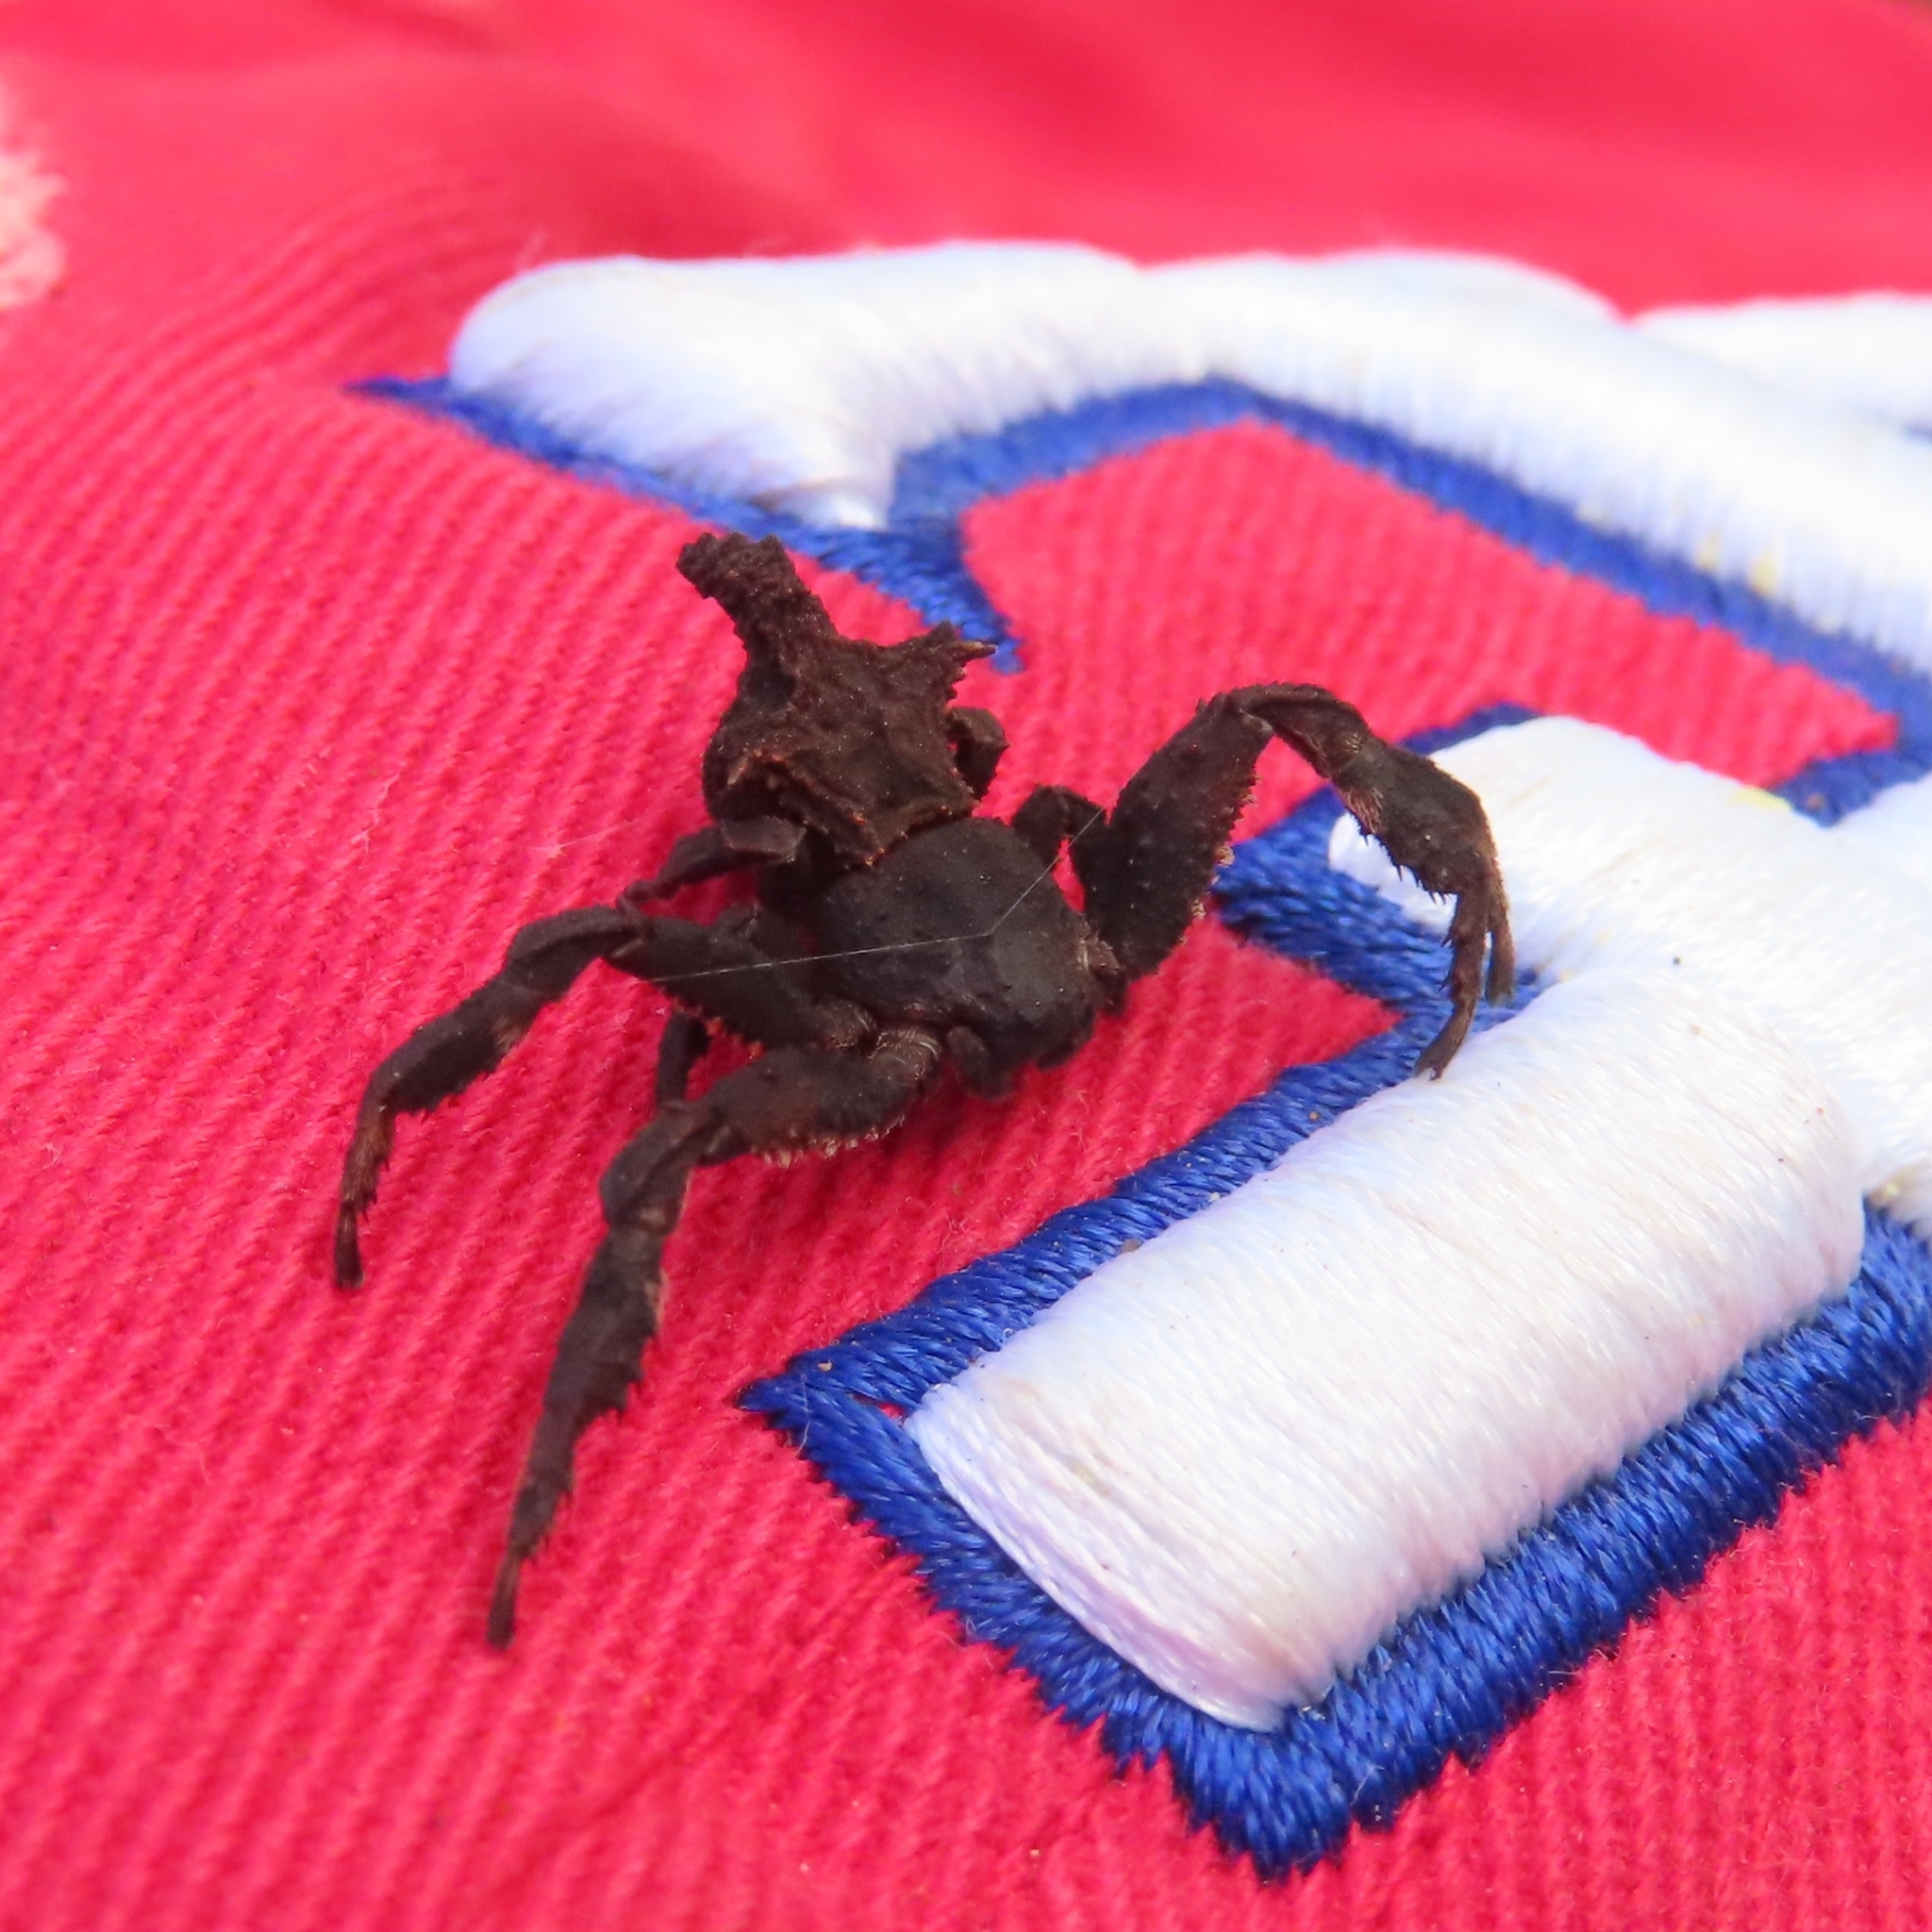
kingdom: Animalia
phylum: Arthropoda
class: Arachnida
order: Araneae
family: Thomisidae
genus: Epicadus
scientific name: Epicadus stelloides
